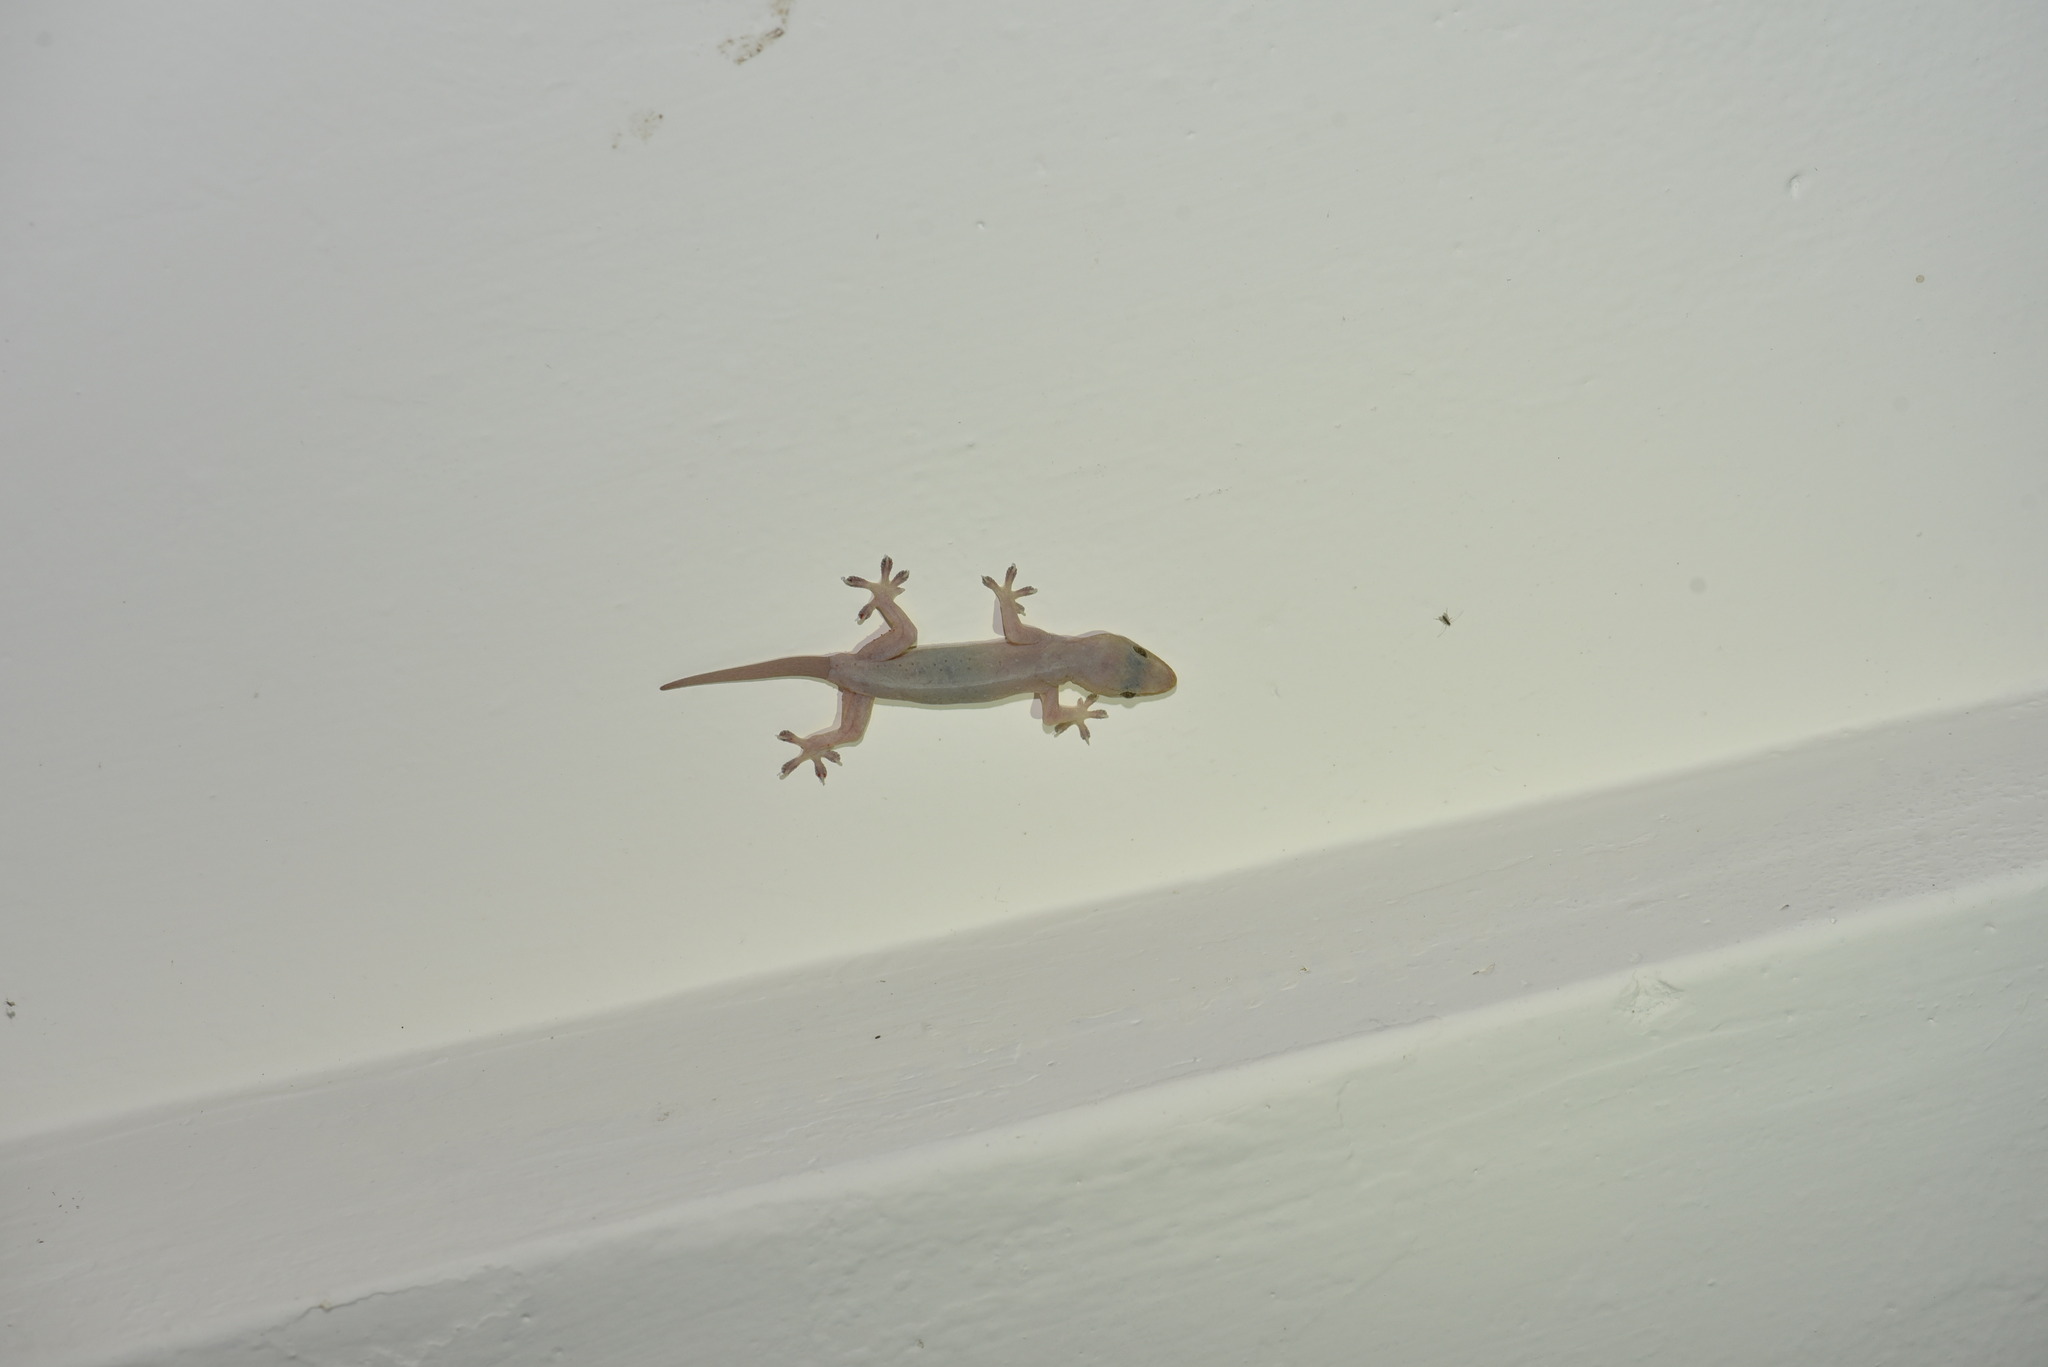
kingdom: Animalia
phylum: Chordata
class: Squamata
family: Gekkonidae
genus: Hemidactylus
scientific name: Hemidactylus frenatus
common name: Common house gecko
